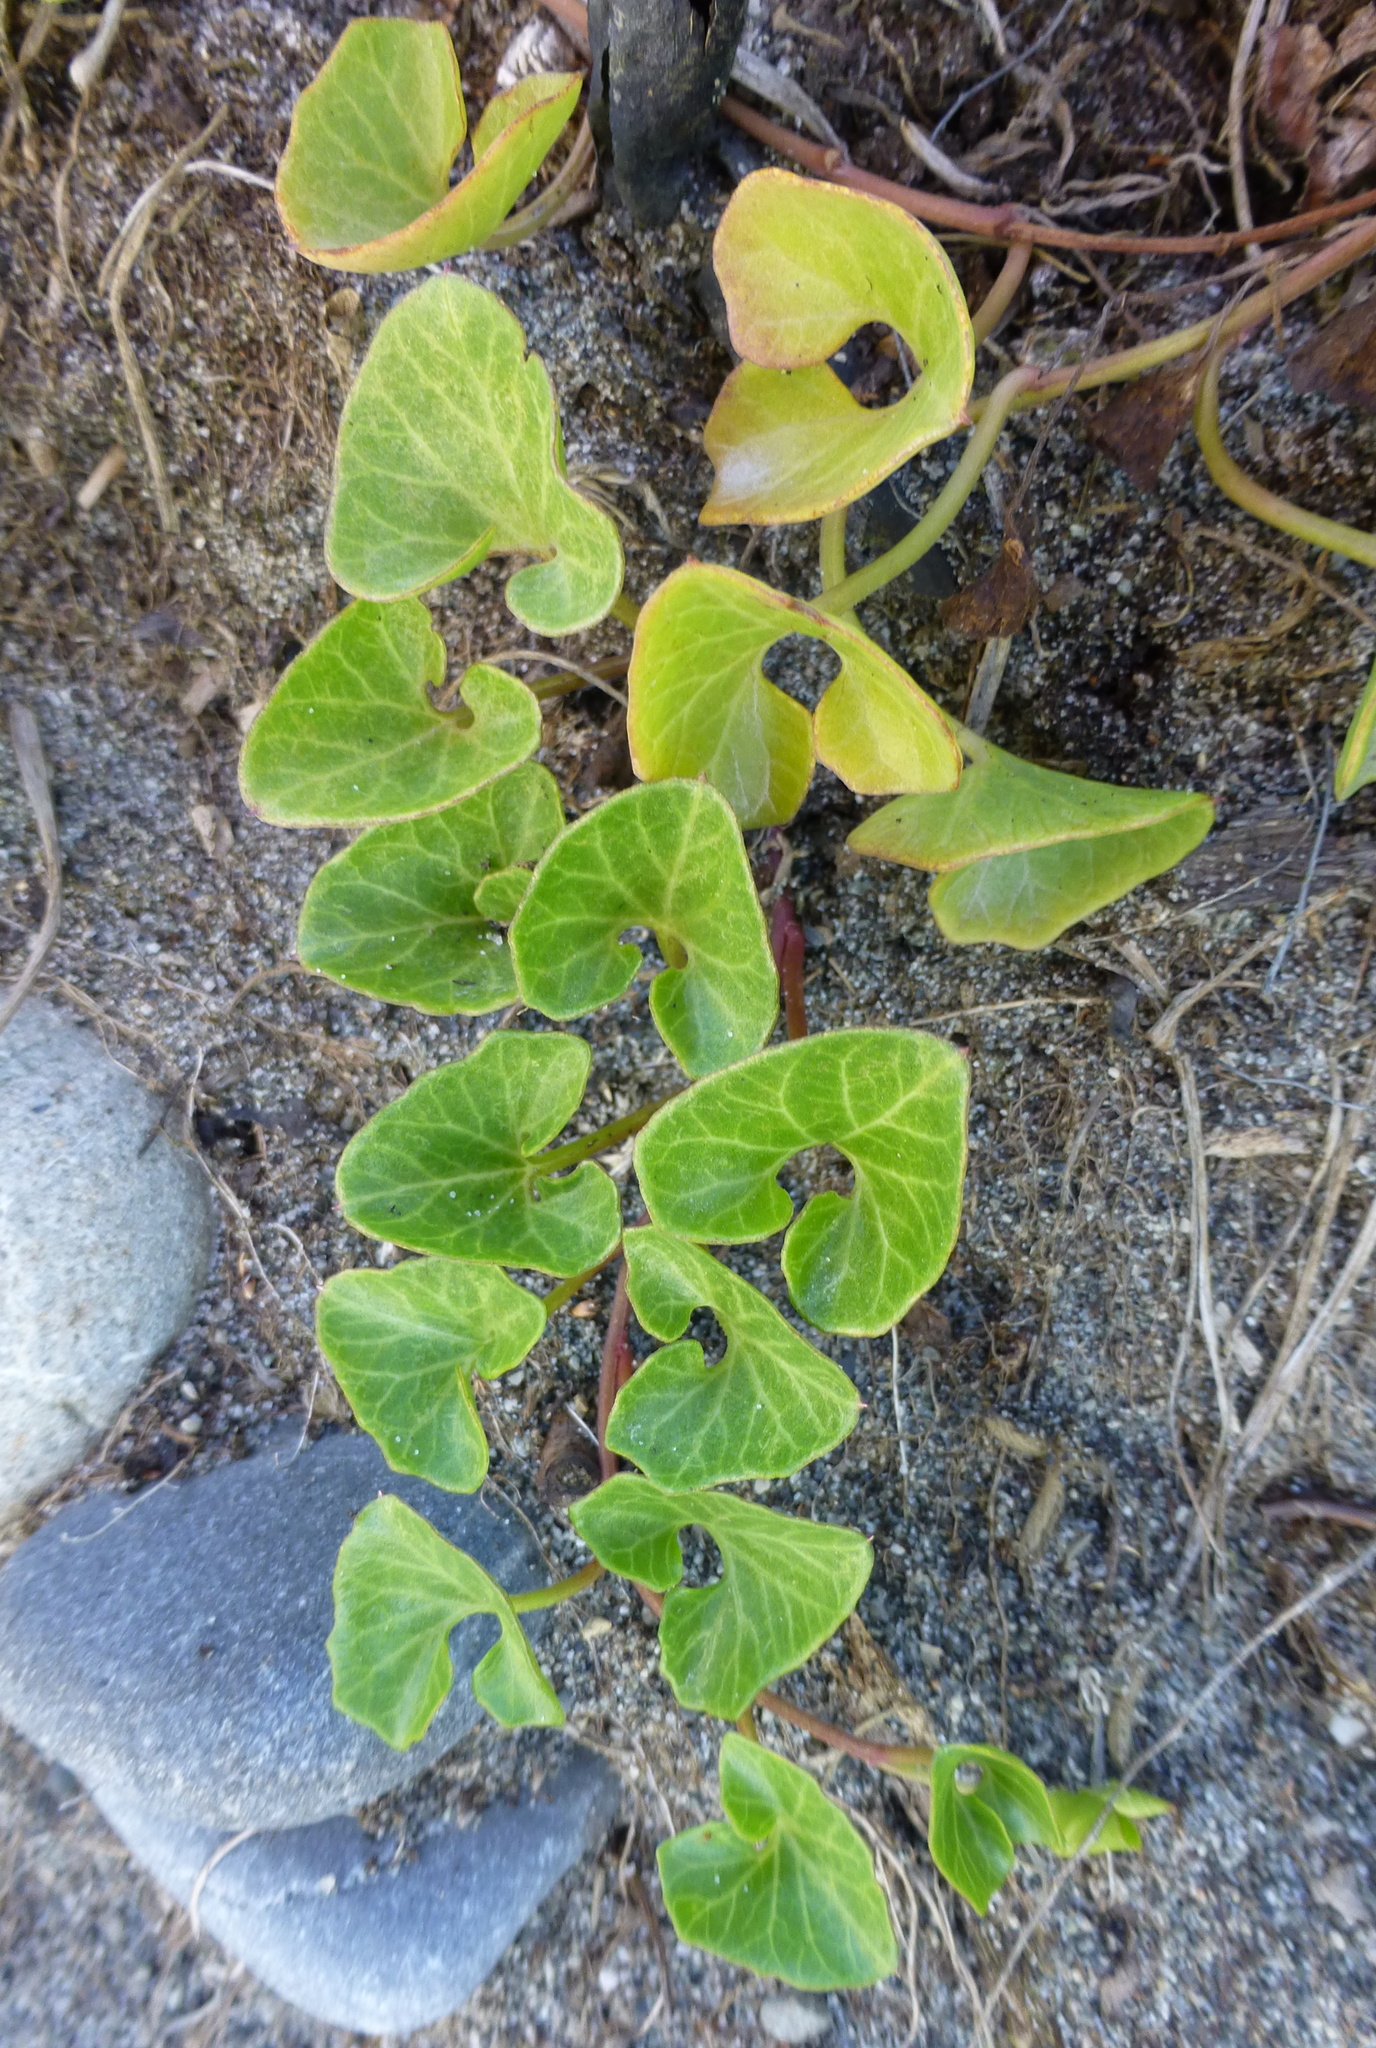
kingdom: Plantae
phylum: Tracheophyta
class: Magnoliopsida
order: Solanales
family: Convolvulaceae
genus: Calystegia
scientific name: Calystegia soldanella
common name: Sea bindweed
